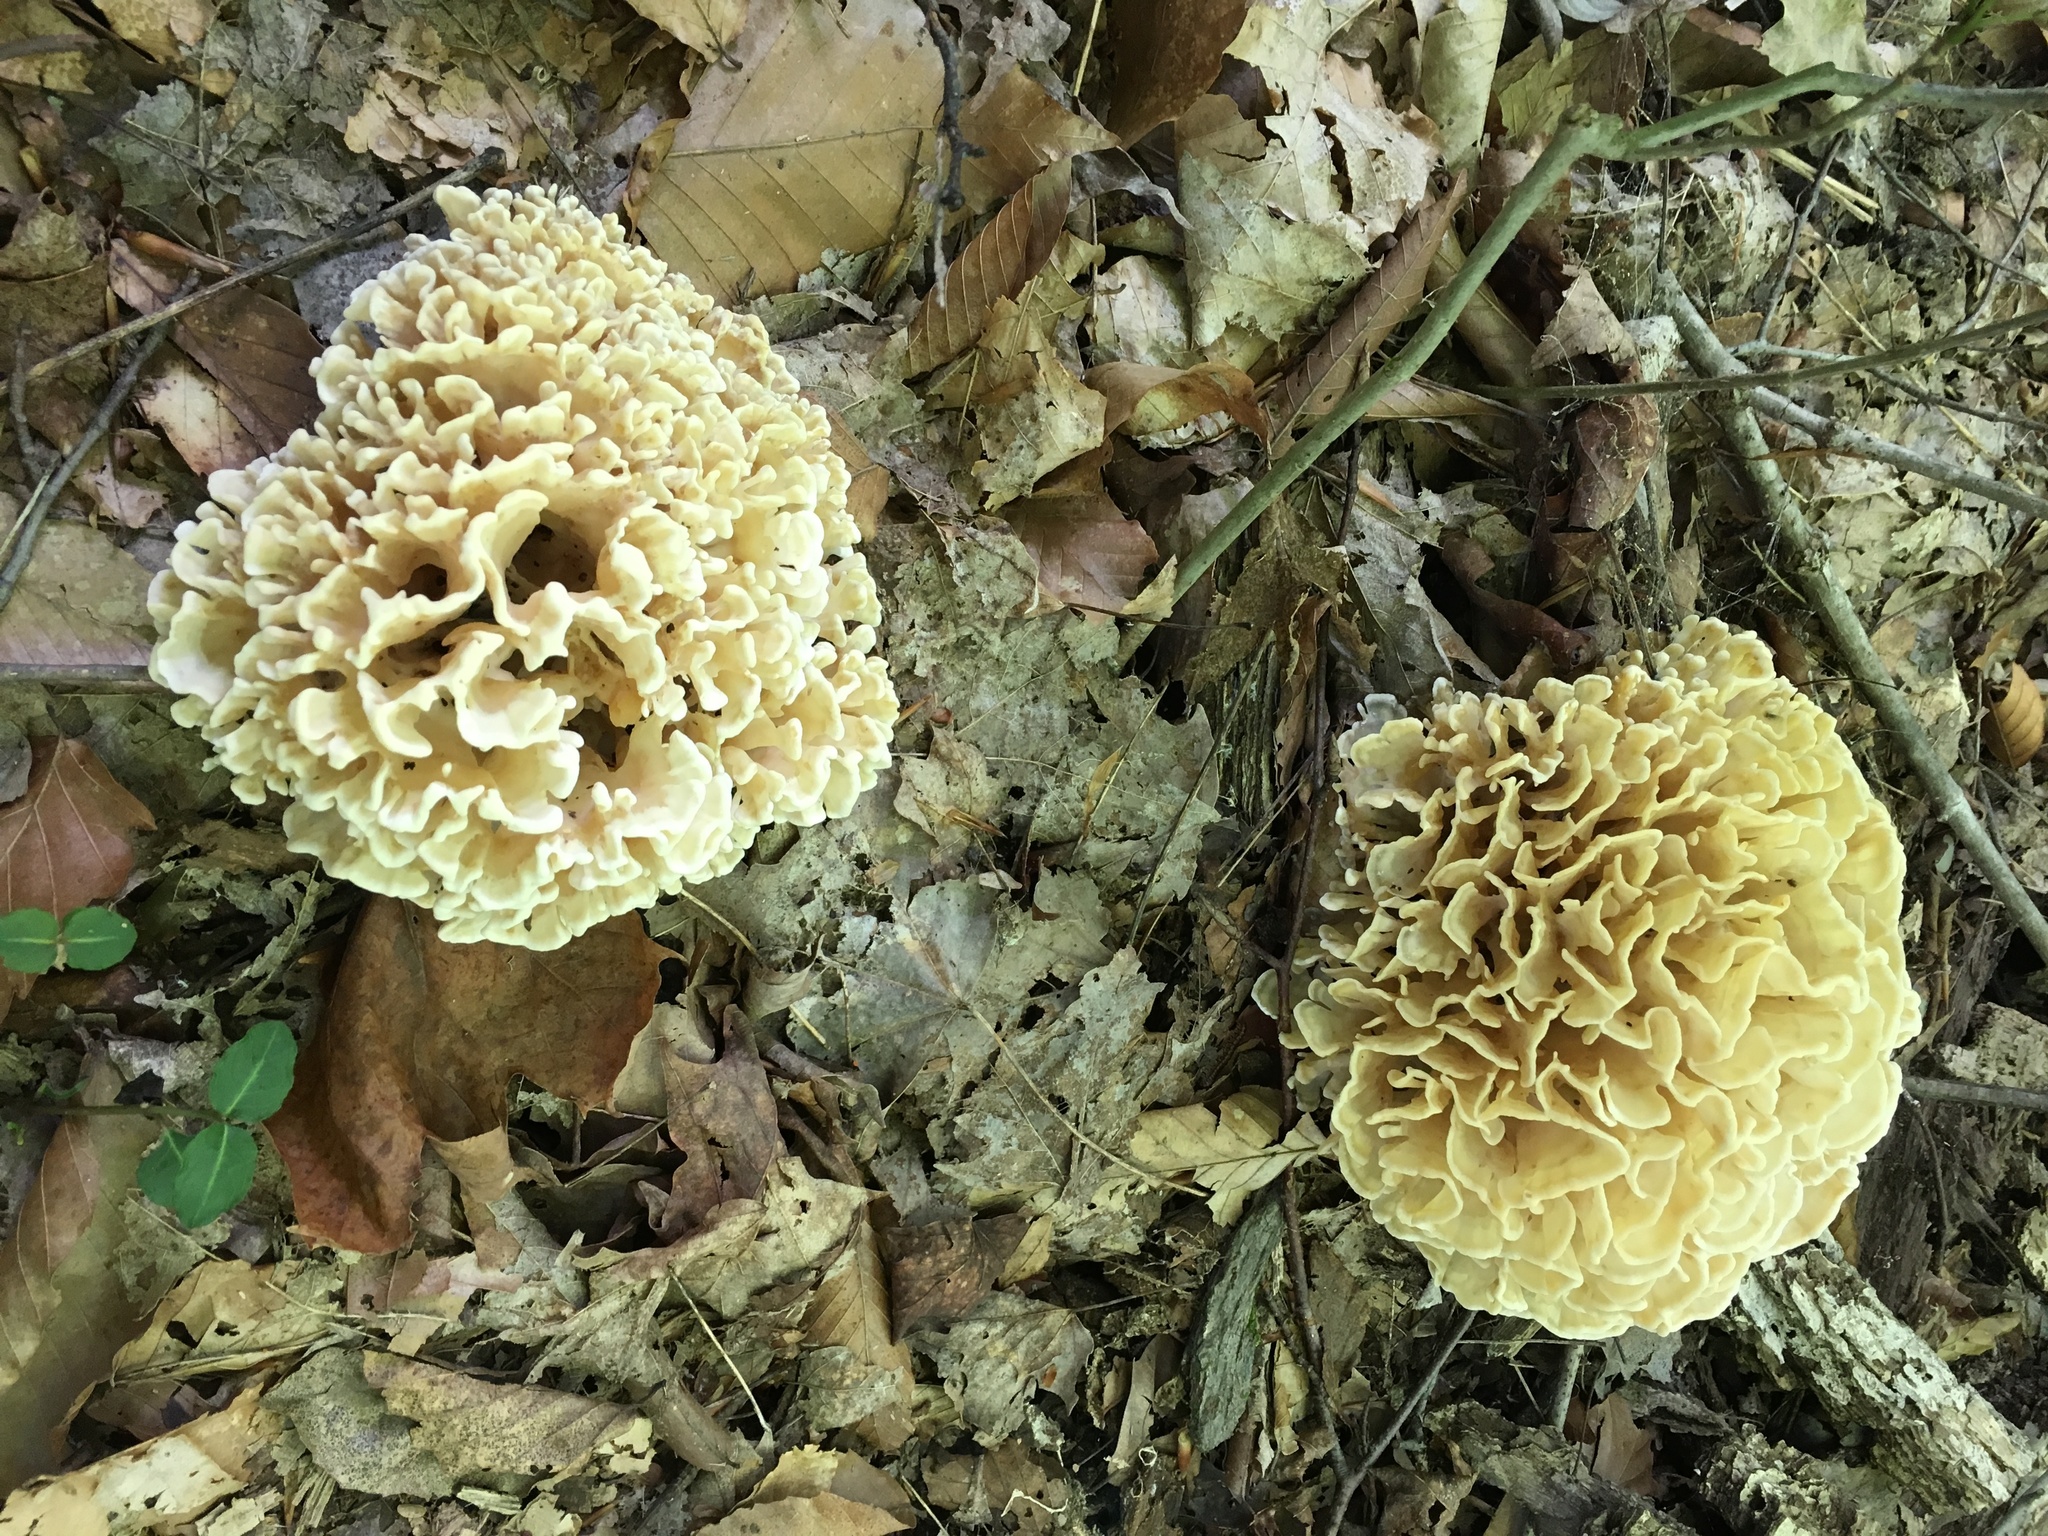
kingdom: Fungi
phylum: Basidiomycota
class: Agaricomycetes
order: Polyporales
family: Sparassidaceae
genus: Sparassis
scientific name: Sparassis spathulata
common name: Eastern cauliflower mushroom
